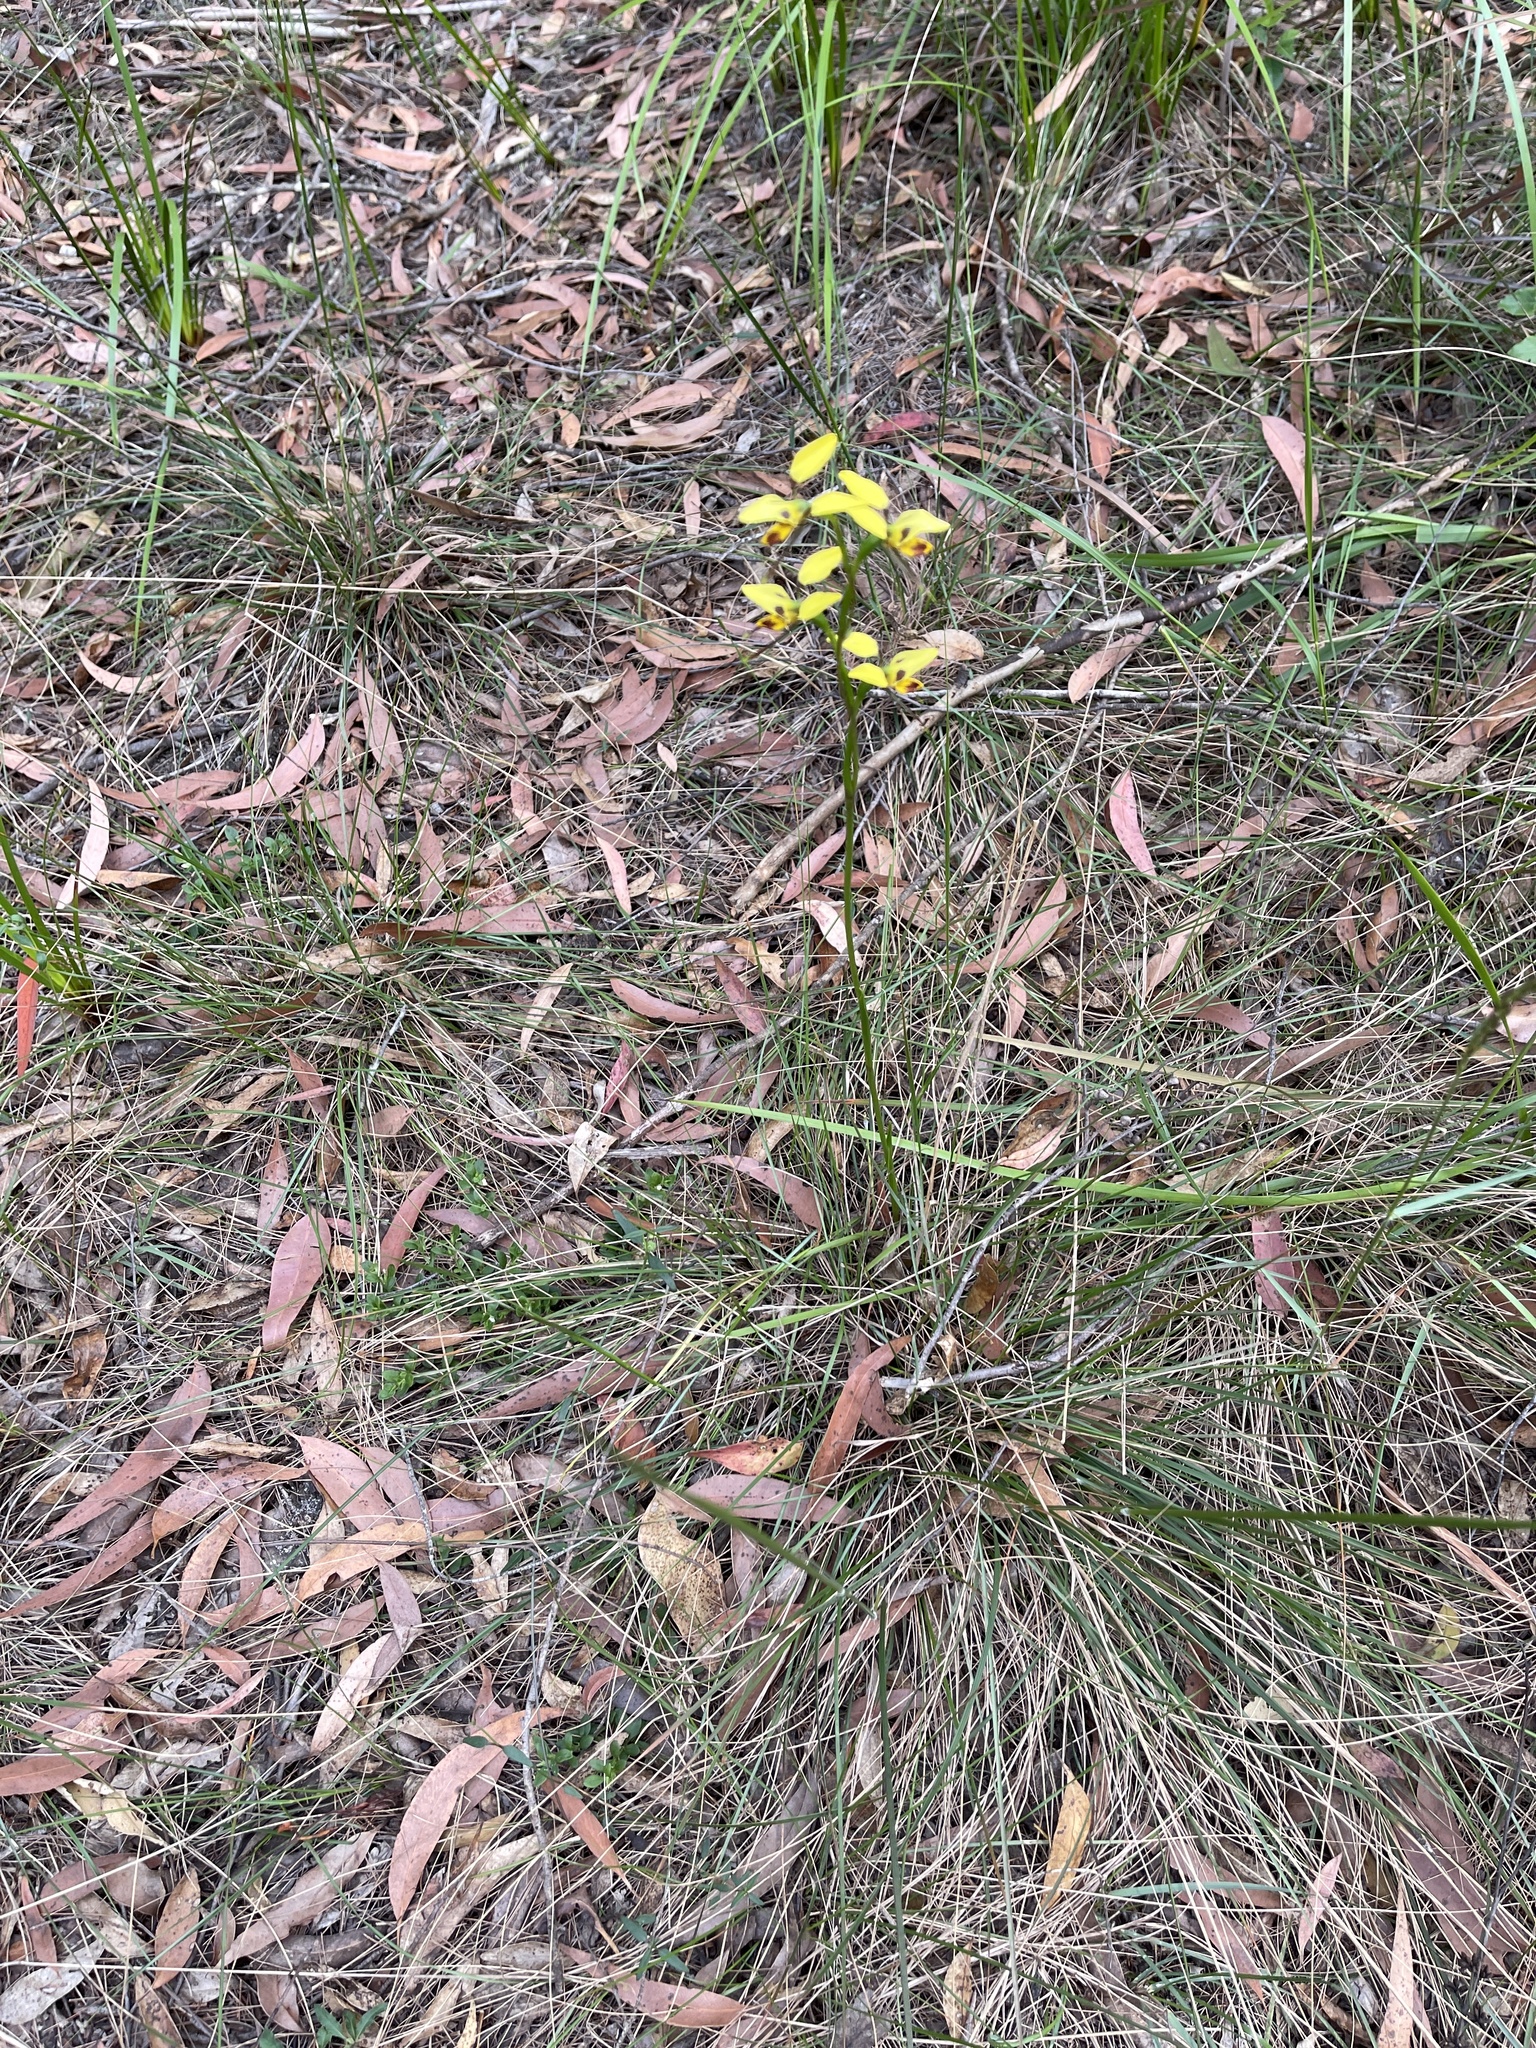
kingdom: Plantae
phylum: Tracheophyta
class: Liliopsida
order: Asparagales
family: Orchidaceae
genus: Diuris
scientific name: Diuris sulphurea
